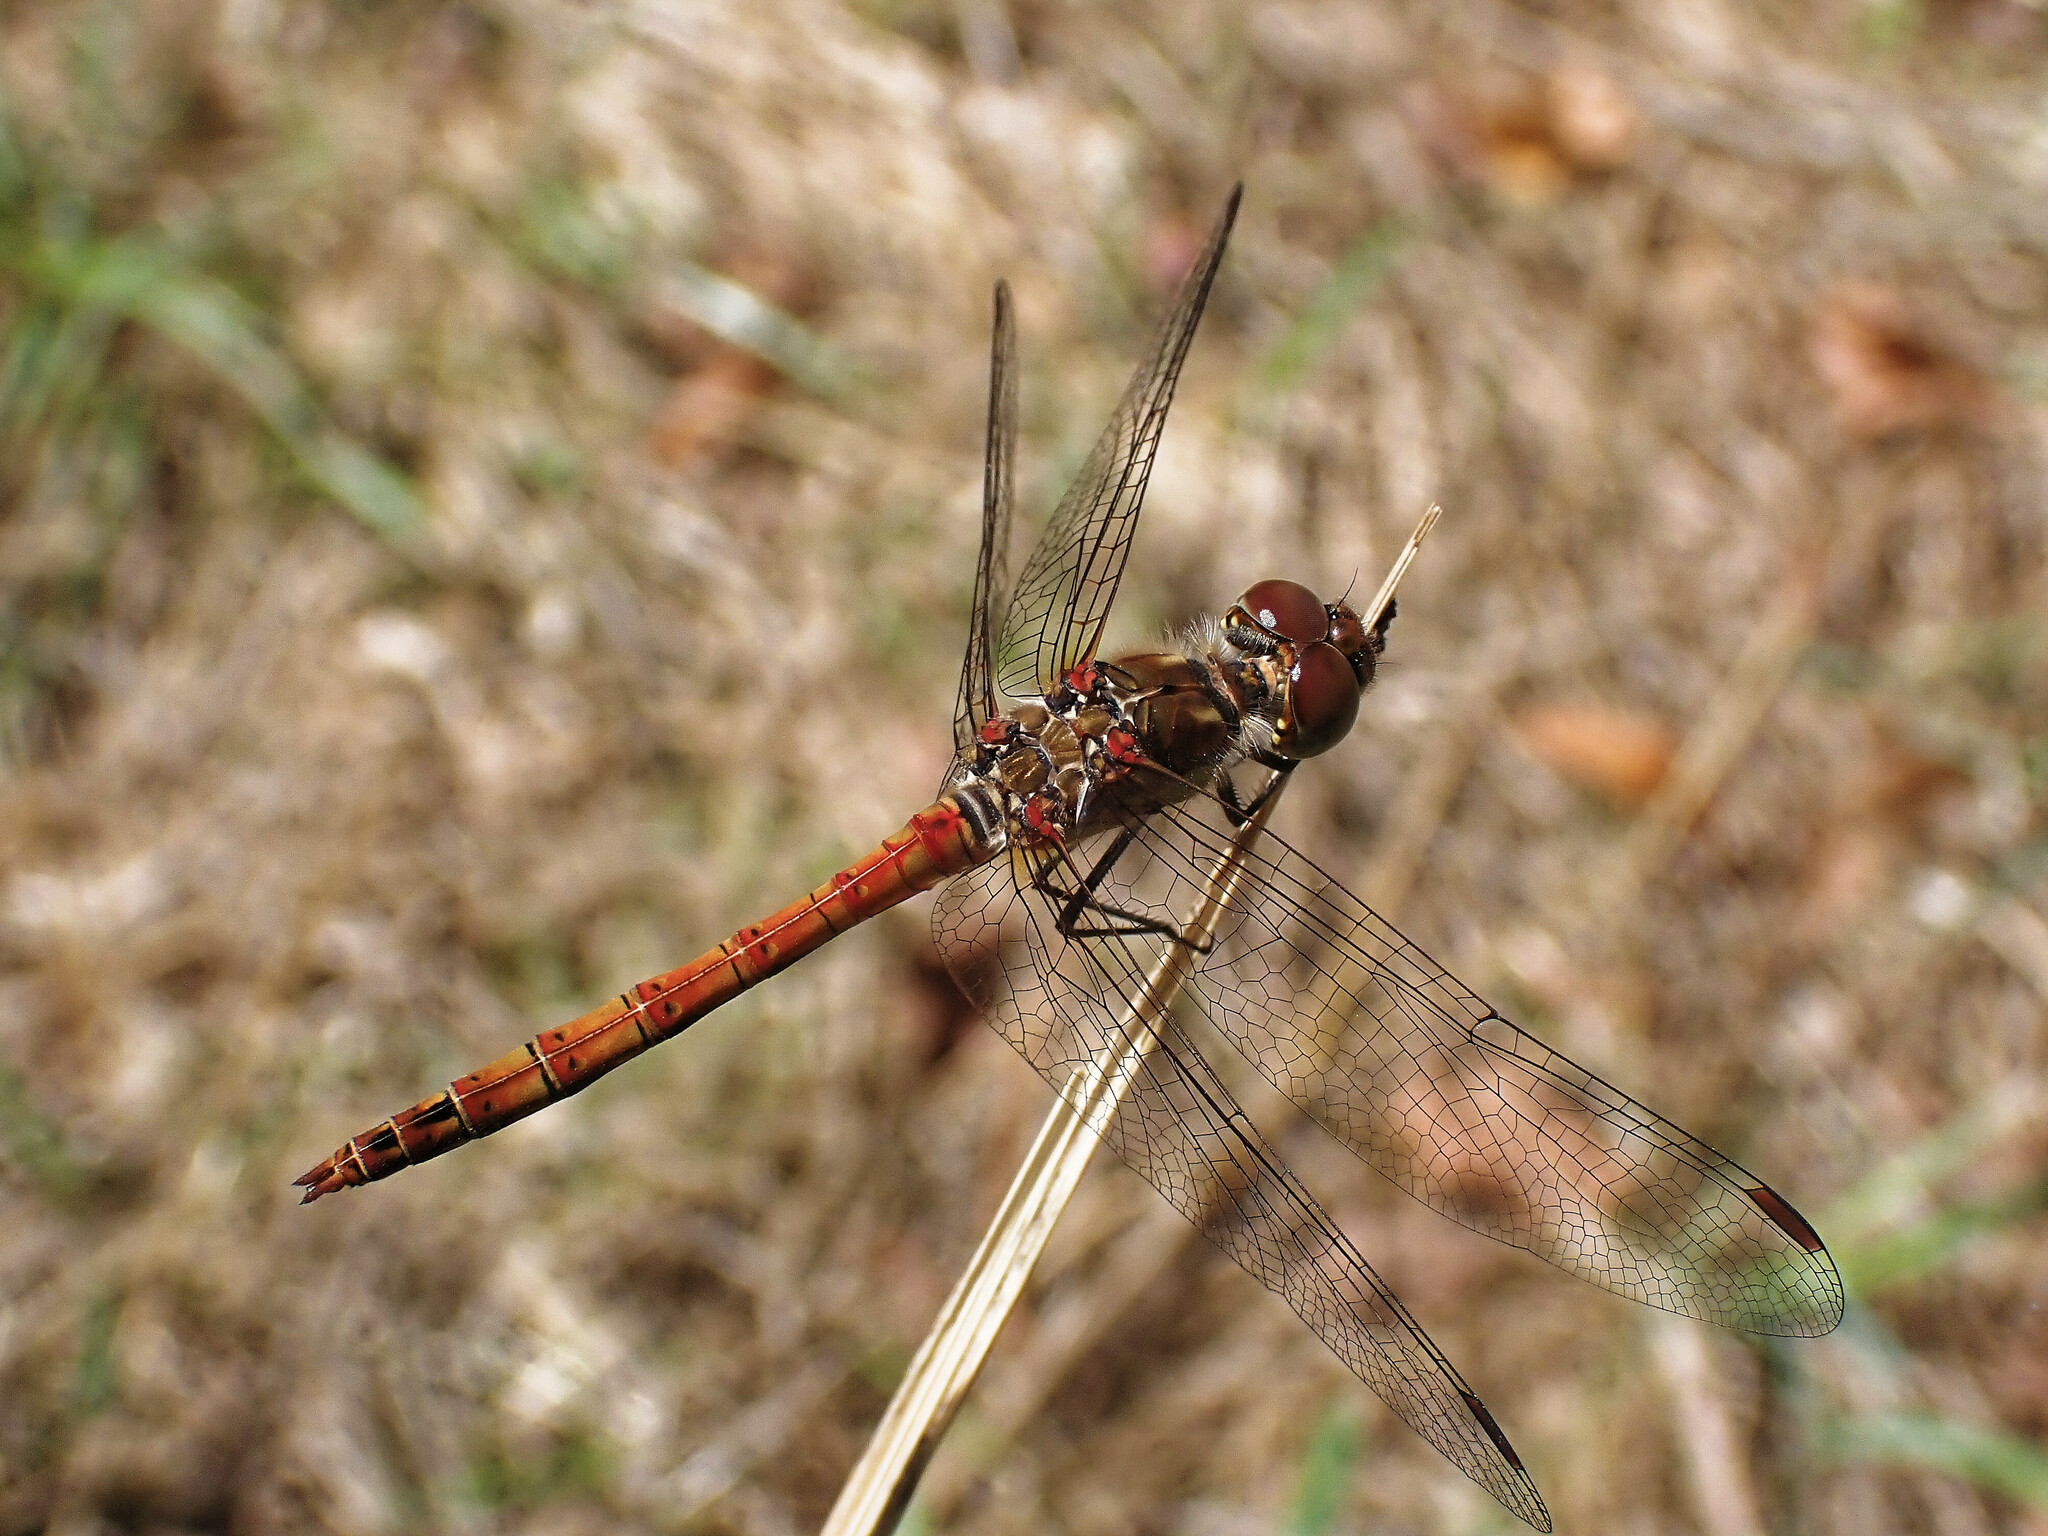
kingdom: Animalia
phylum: Arthropoda
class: Insecta
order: Odonata
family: Libellulidae
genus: Sympetrum
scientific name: Sympetrum striolatum
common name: Common darter
